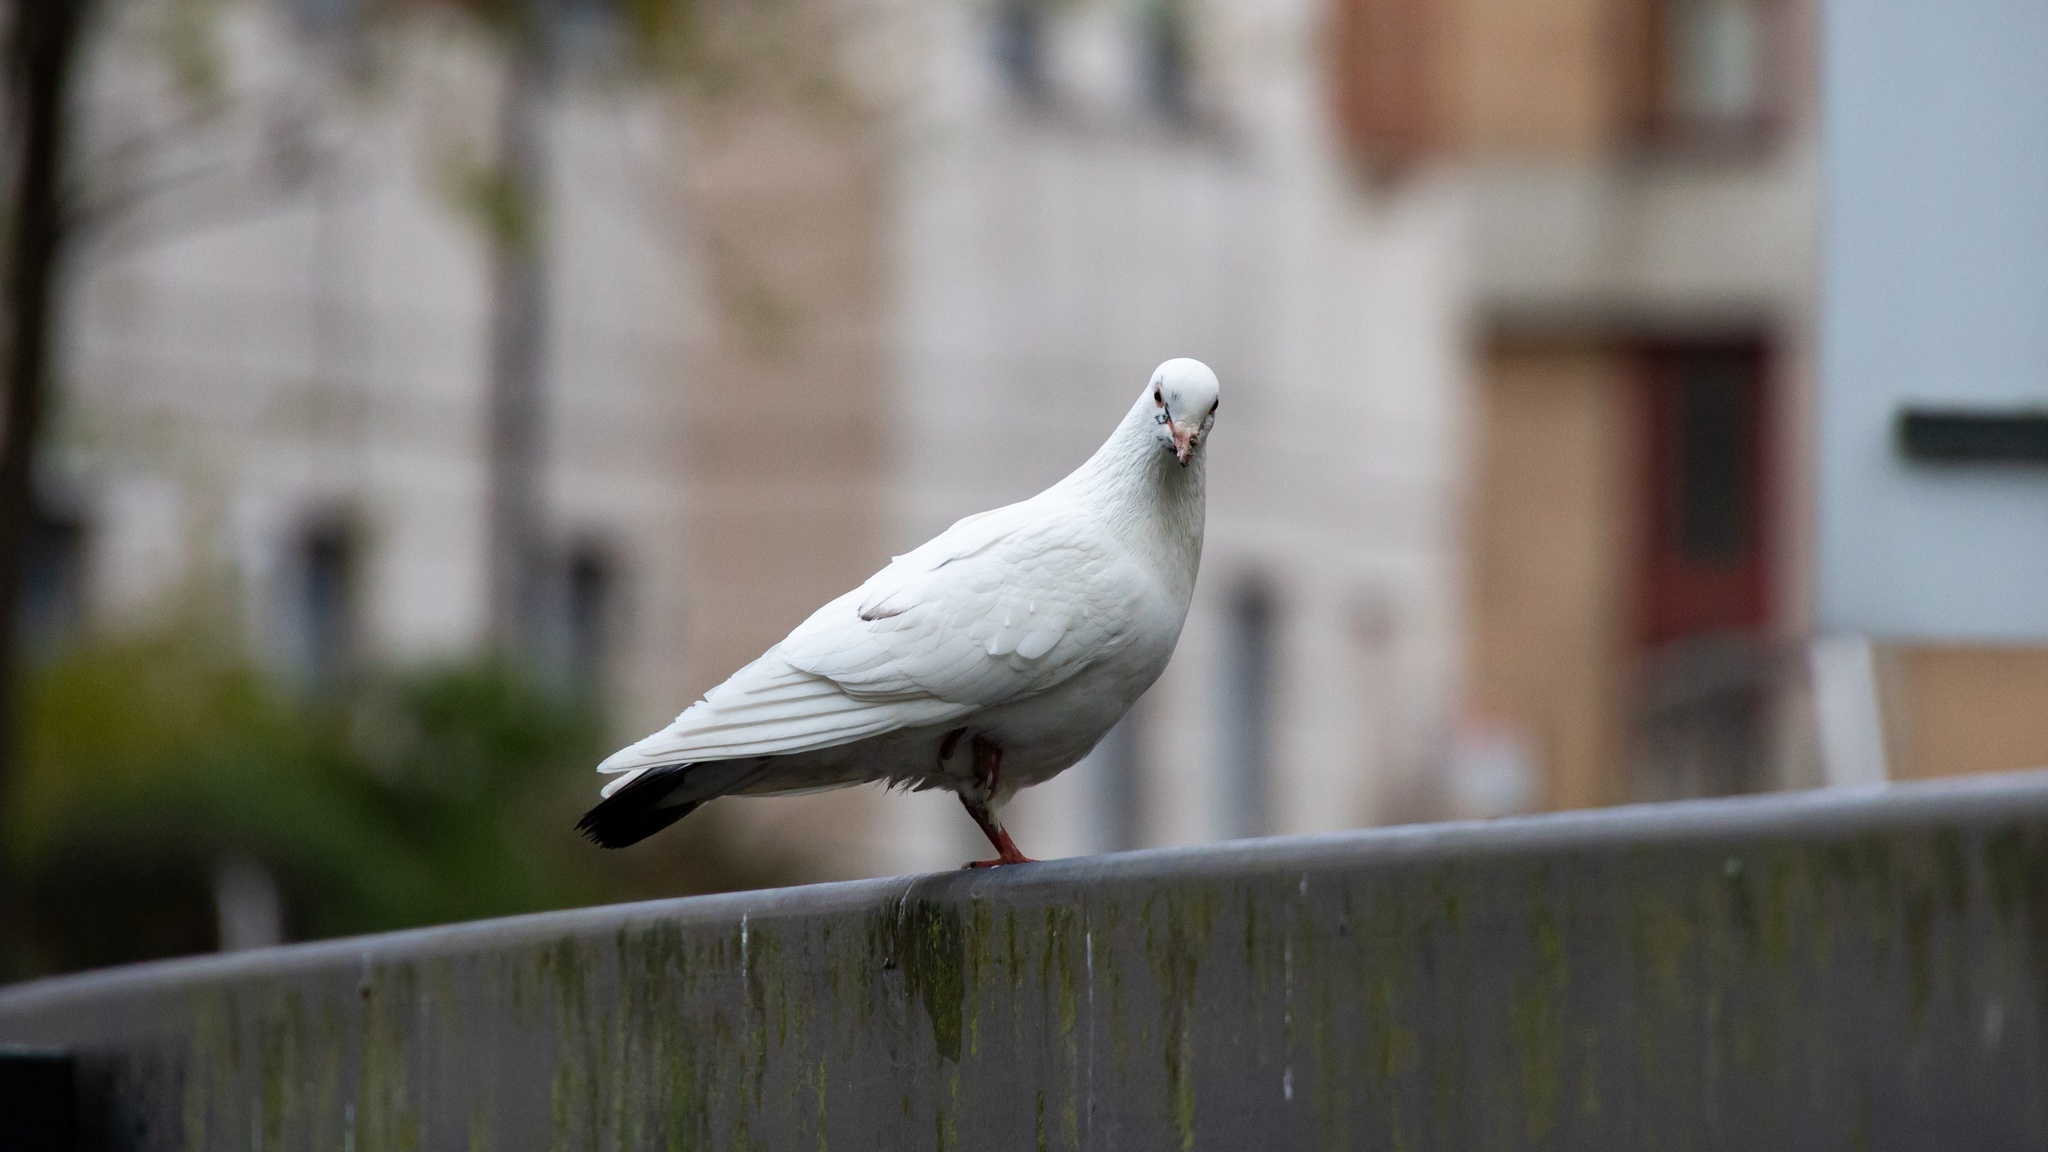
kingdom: Animalia
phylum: Chordata
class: Aves
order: Columbiformes
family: Columbidae
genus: Columba
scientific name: Columba livia
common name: Rock pigeon
